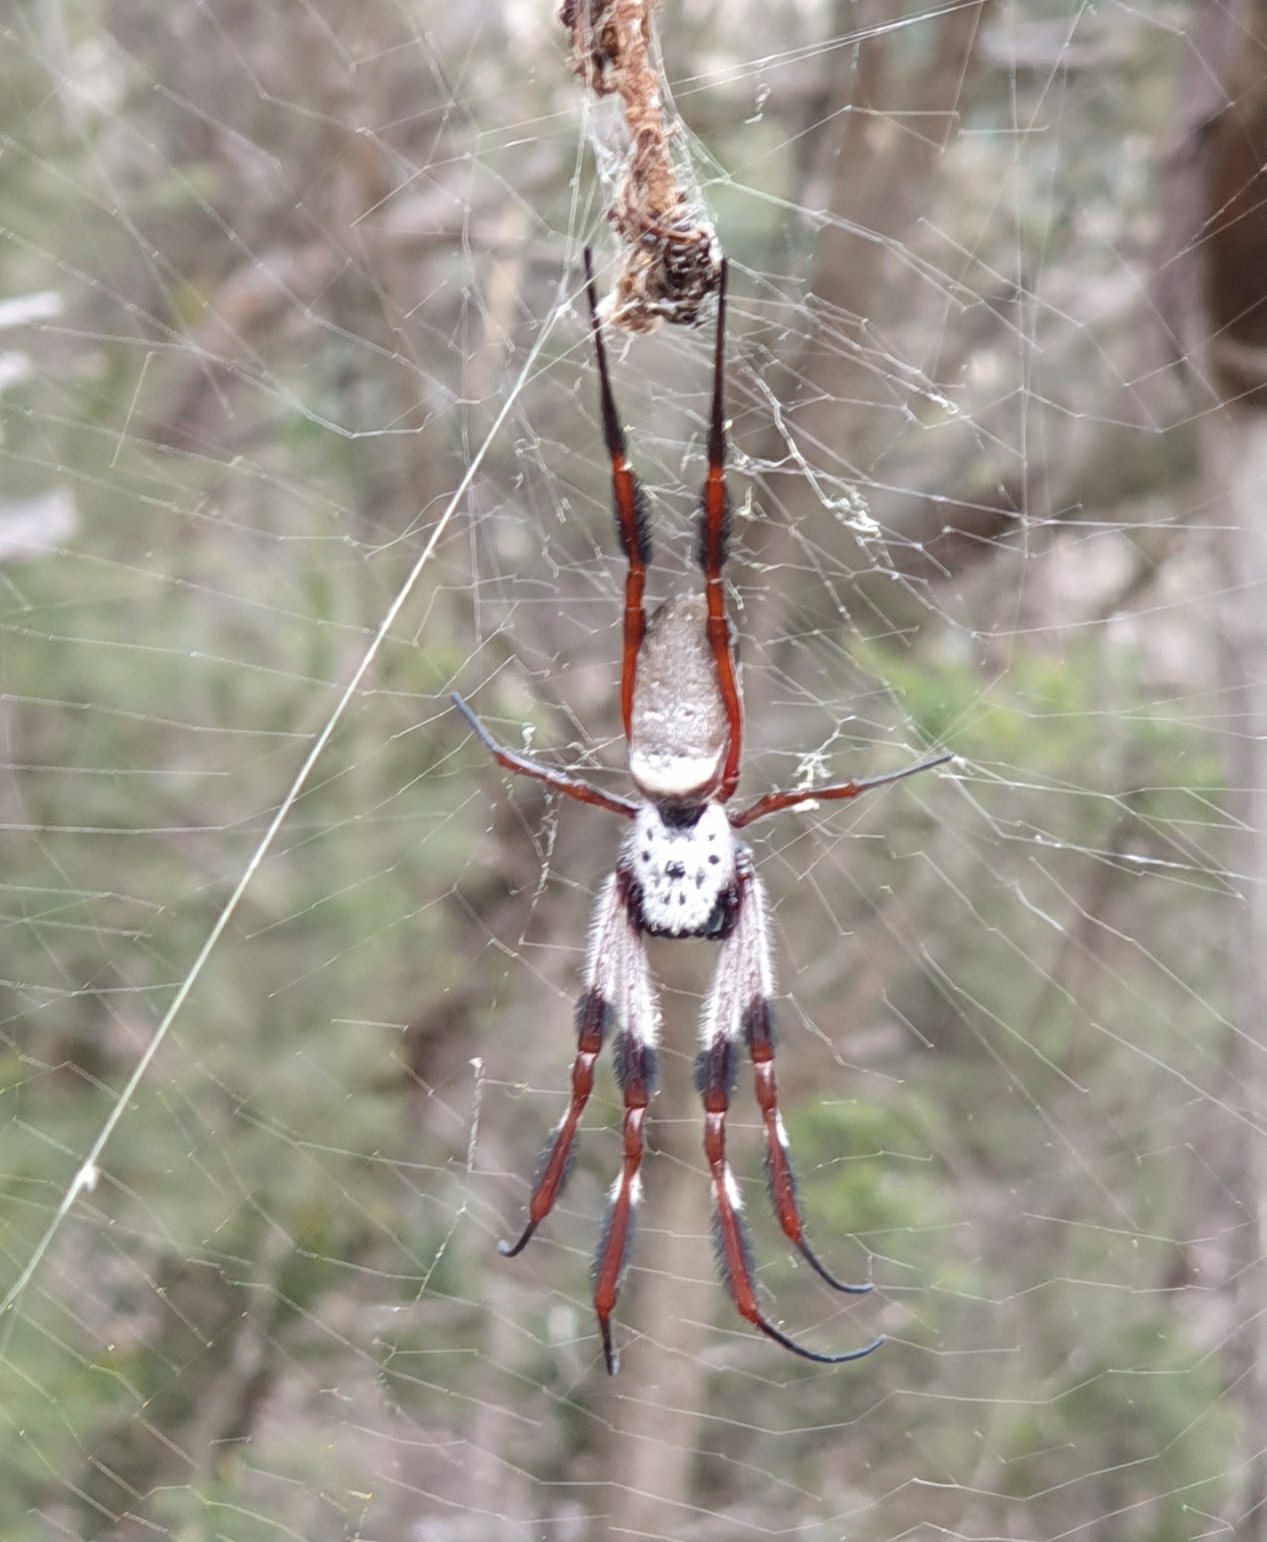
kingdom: Animalia
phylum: Arthropoda
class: Arachnida
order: Araneae
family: Araneidae
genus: Trichonephila
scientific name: Trichonephila edulis
